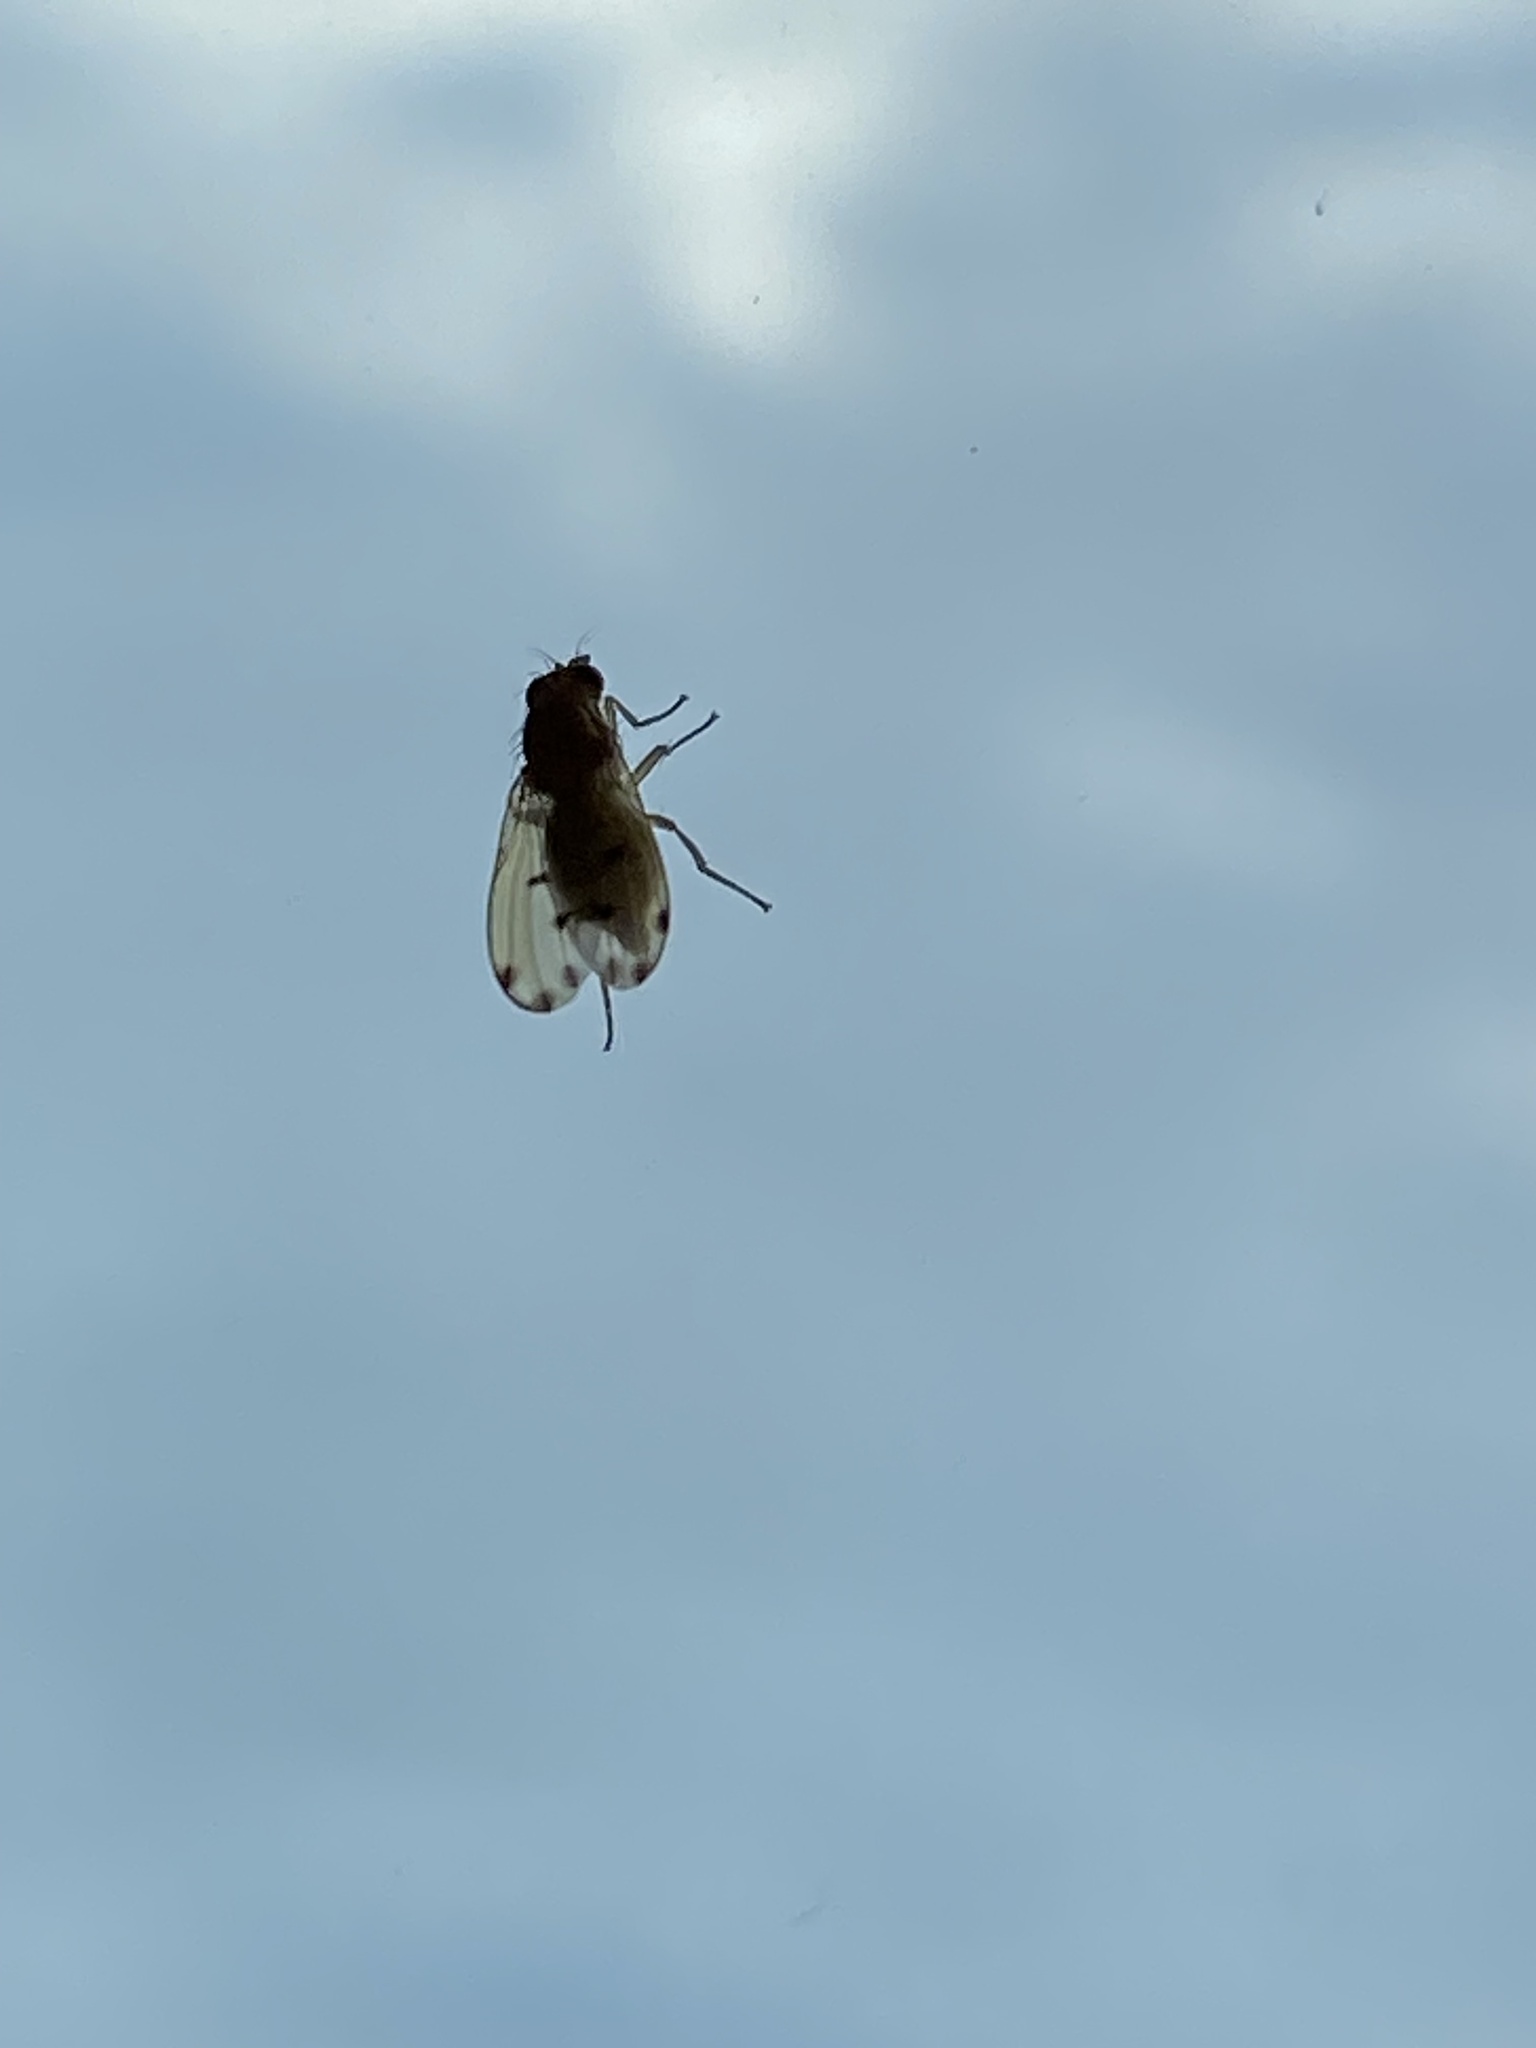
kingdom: Animalia
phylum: Arthropoda
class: Insecta
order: Diptera
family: Lauxaniidae
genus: Meiosimyza
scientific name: Meiosimyza decempunctata
